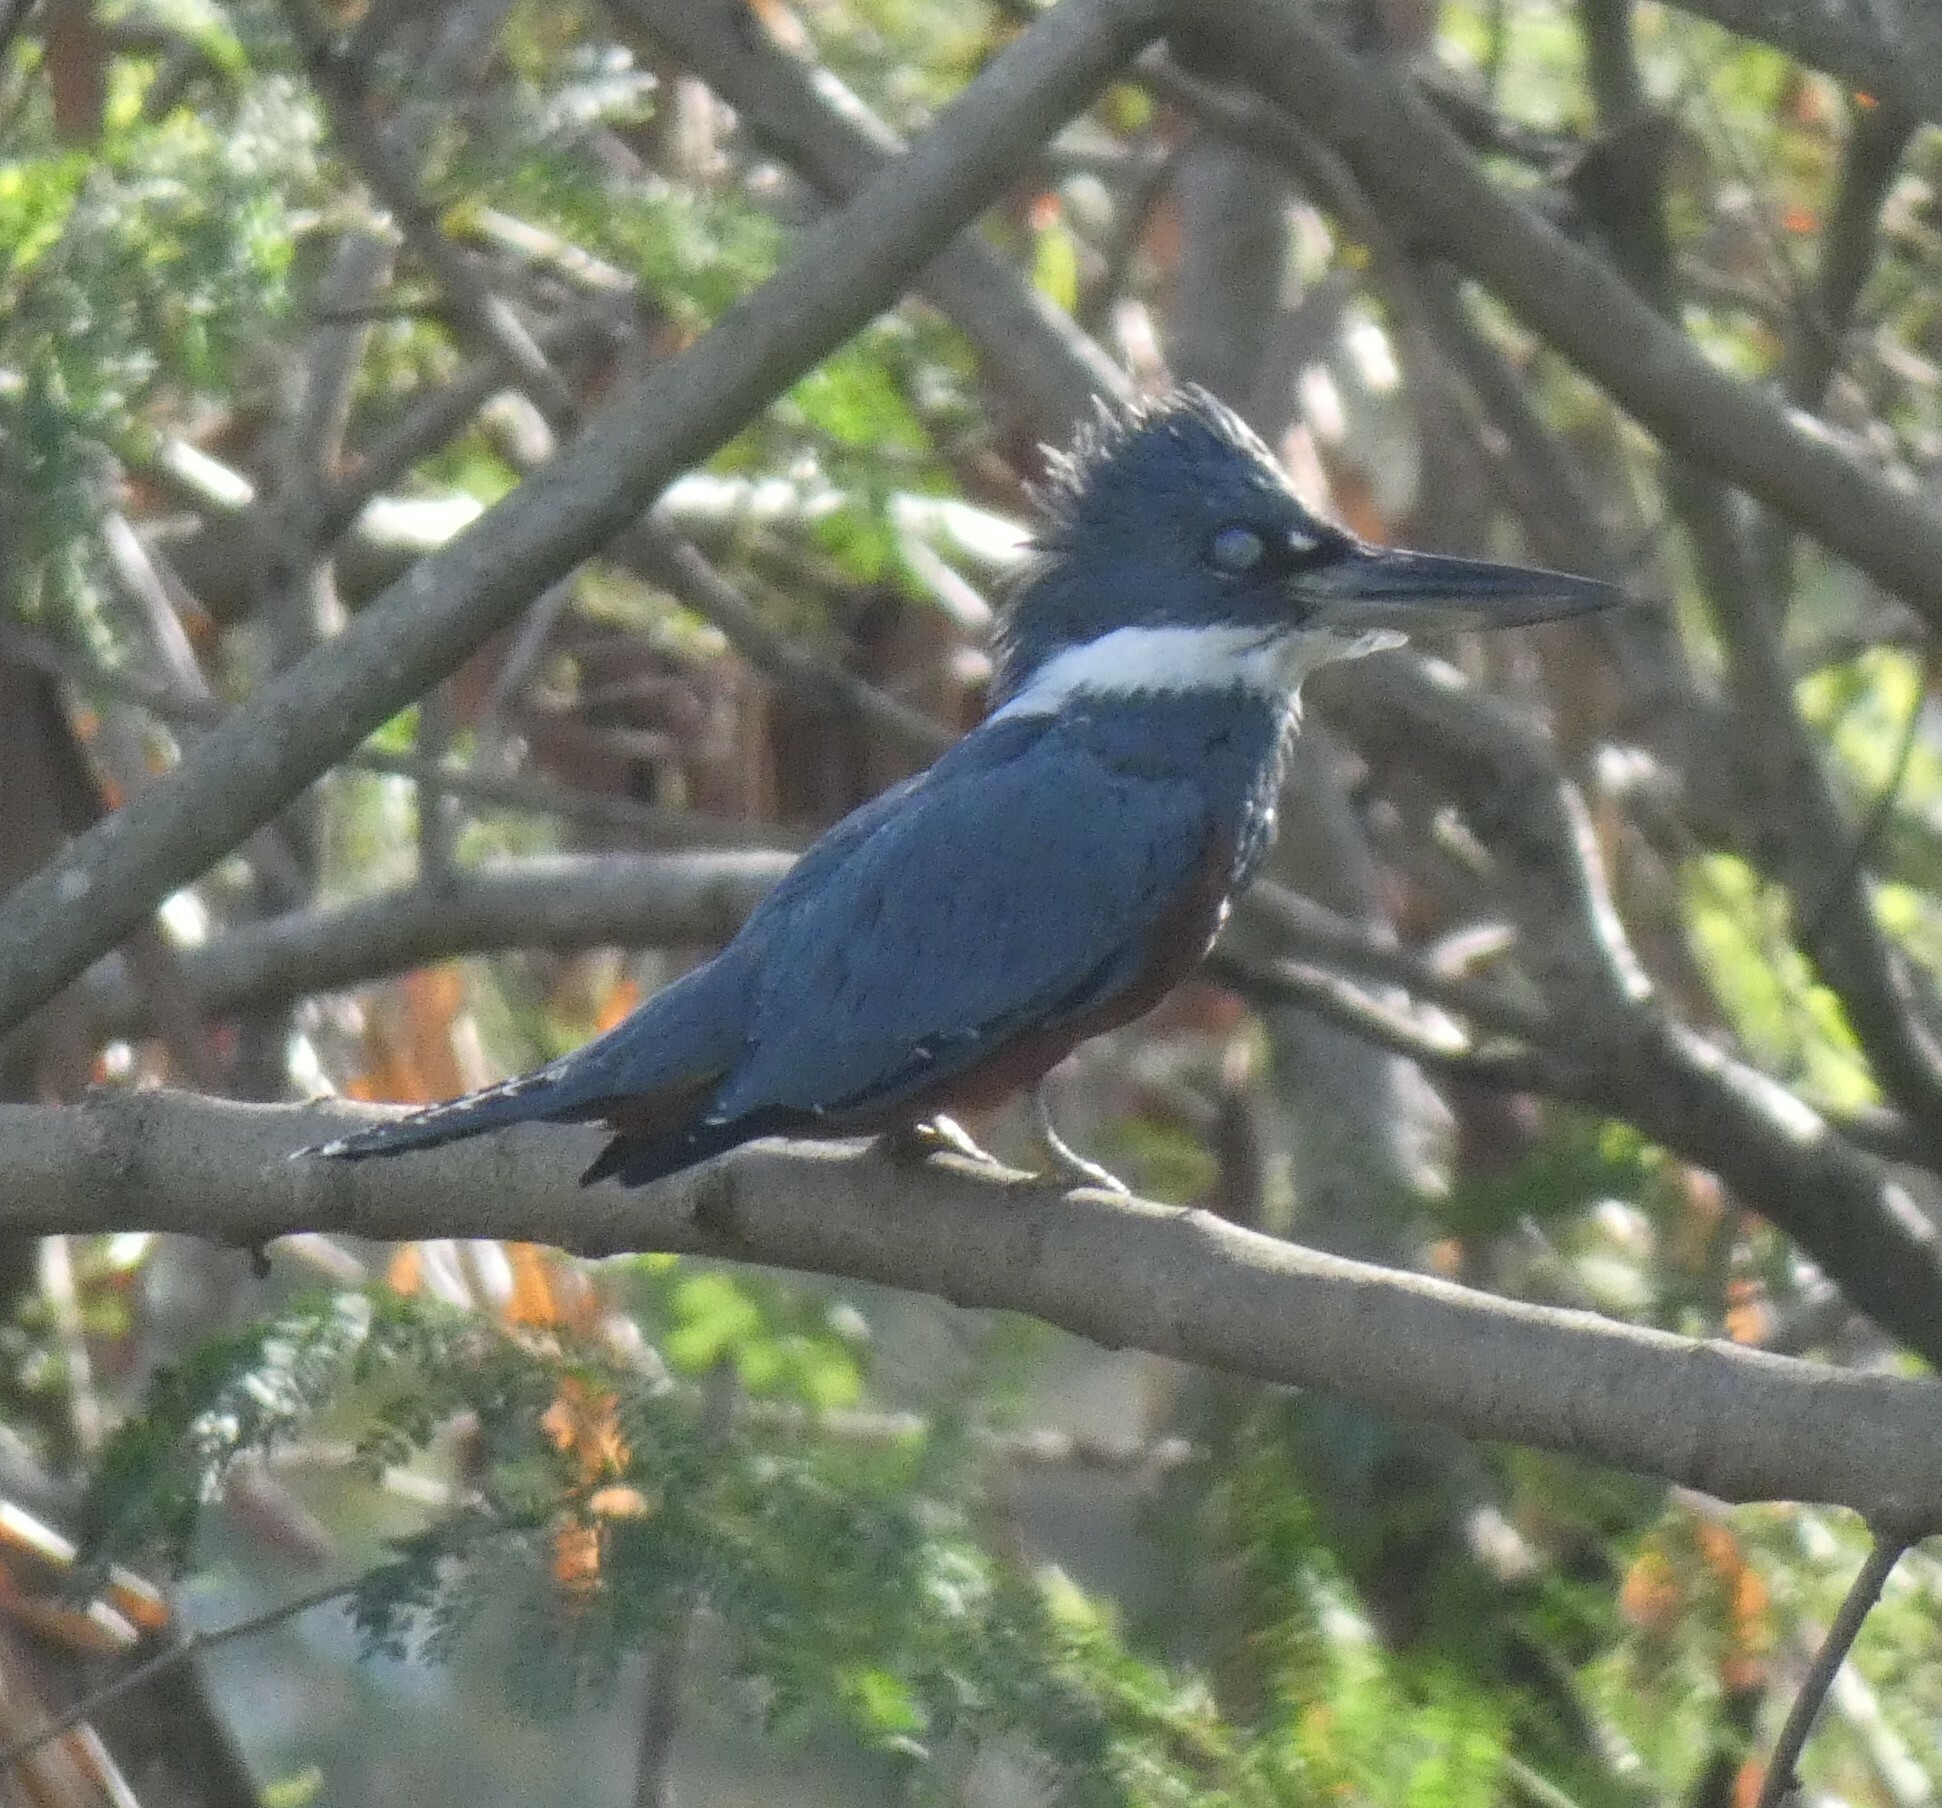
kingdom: Animalia
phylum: Chordata
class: Aves
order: Coraciiformes
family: Alcedinidae
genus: Megaceryle
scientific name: Megaceryle torquata
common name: Ringed kingfisher
